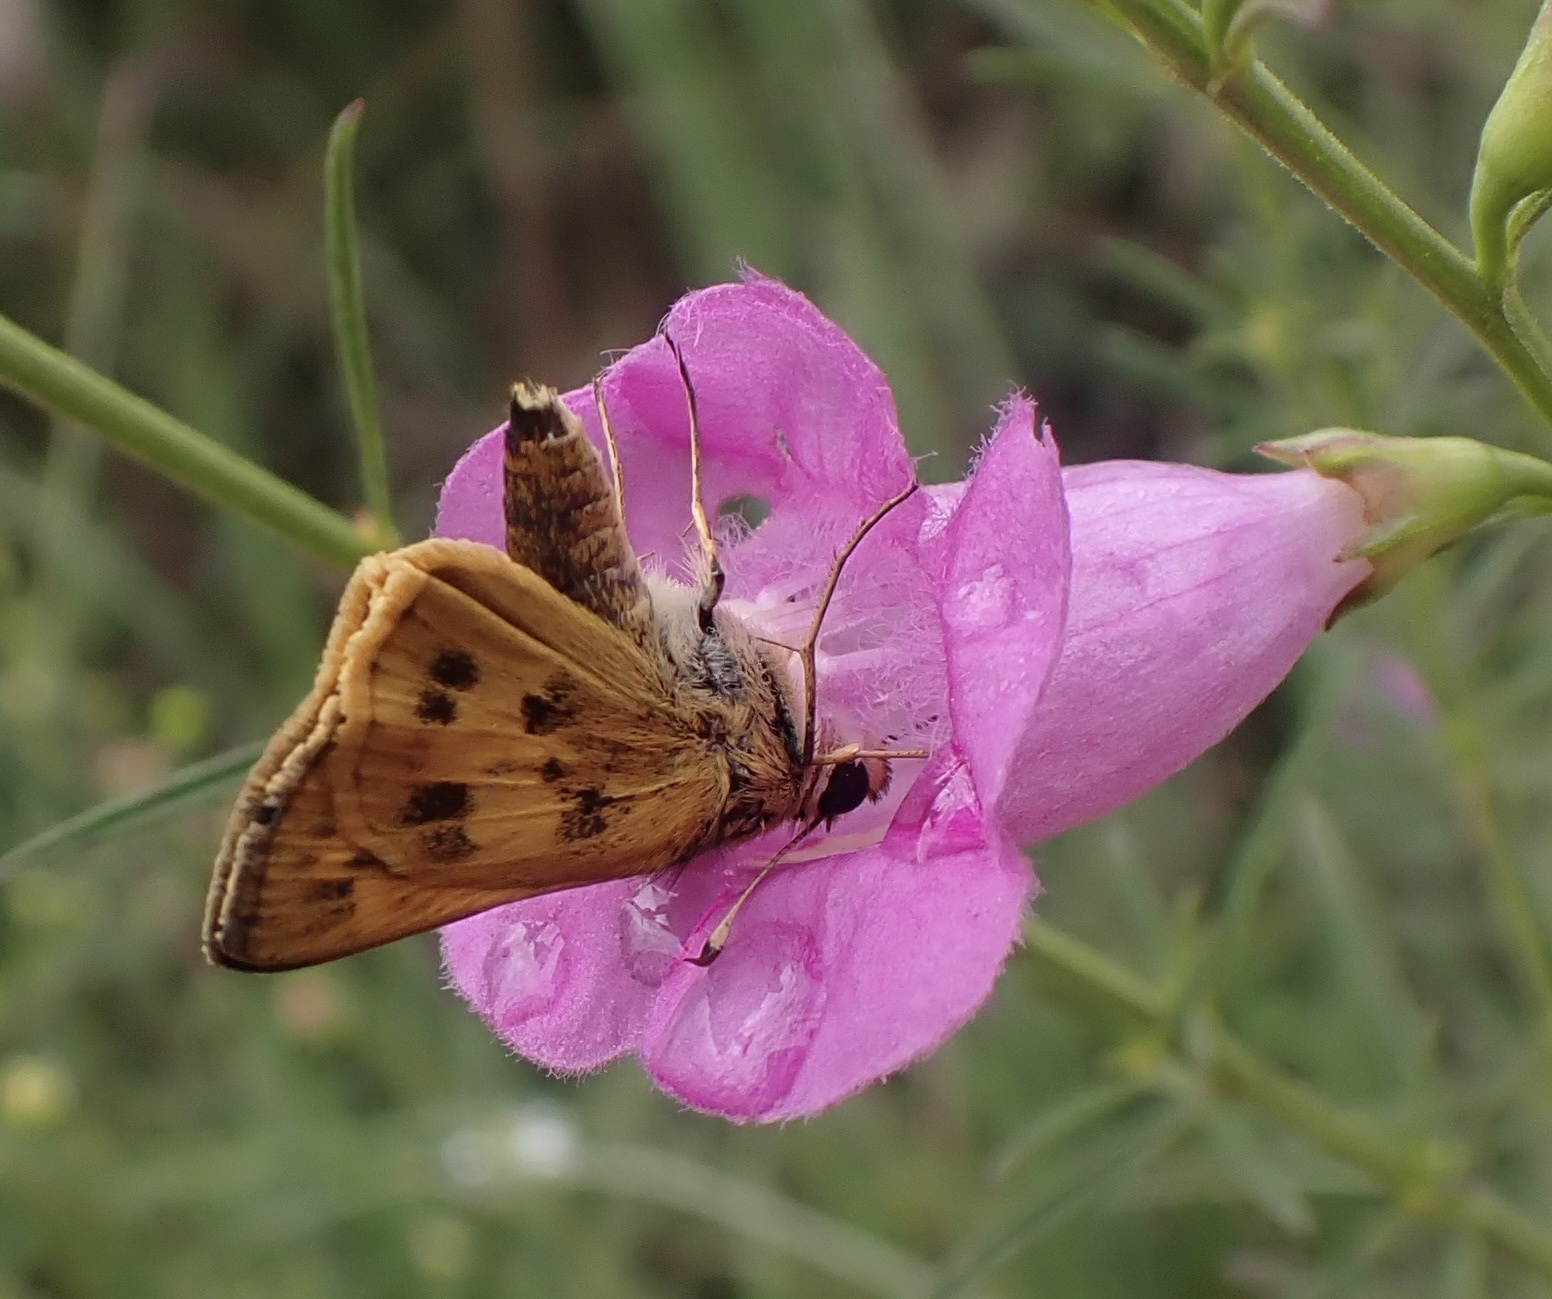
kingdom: Animalia
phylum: Arthropoda
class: Insecta
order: Lepidoptera
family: Hesperiidae
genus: Polites
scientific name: Polites vibex
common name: Whirlabout
